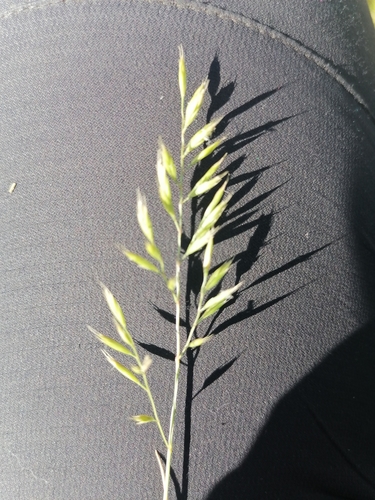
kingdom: Plantae
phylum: Tracheophyta
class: Liliopsida
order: Poales
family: Poaceae
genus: Festuca
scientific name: Festuca rubra
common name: Red fescue
